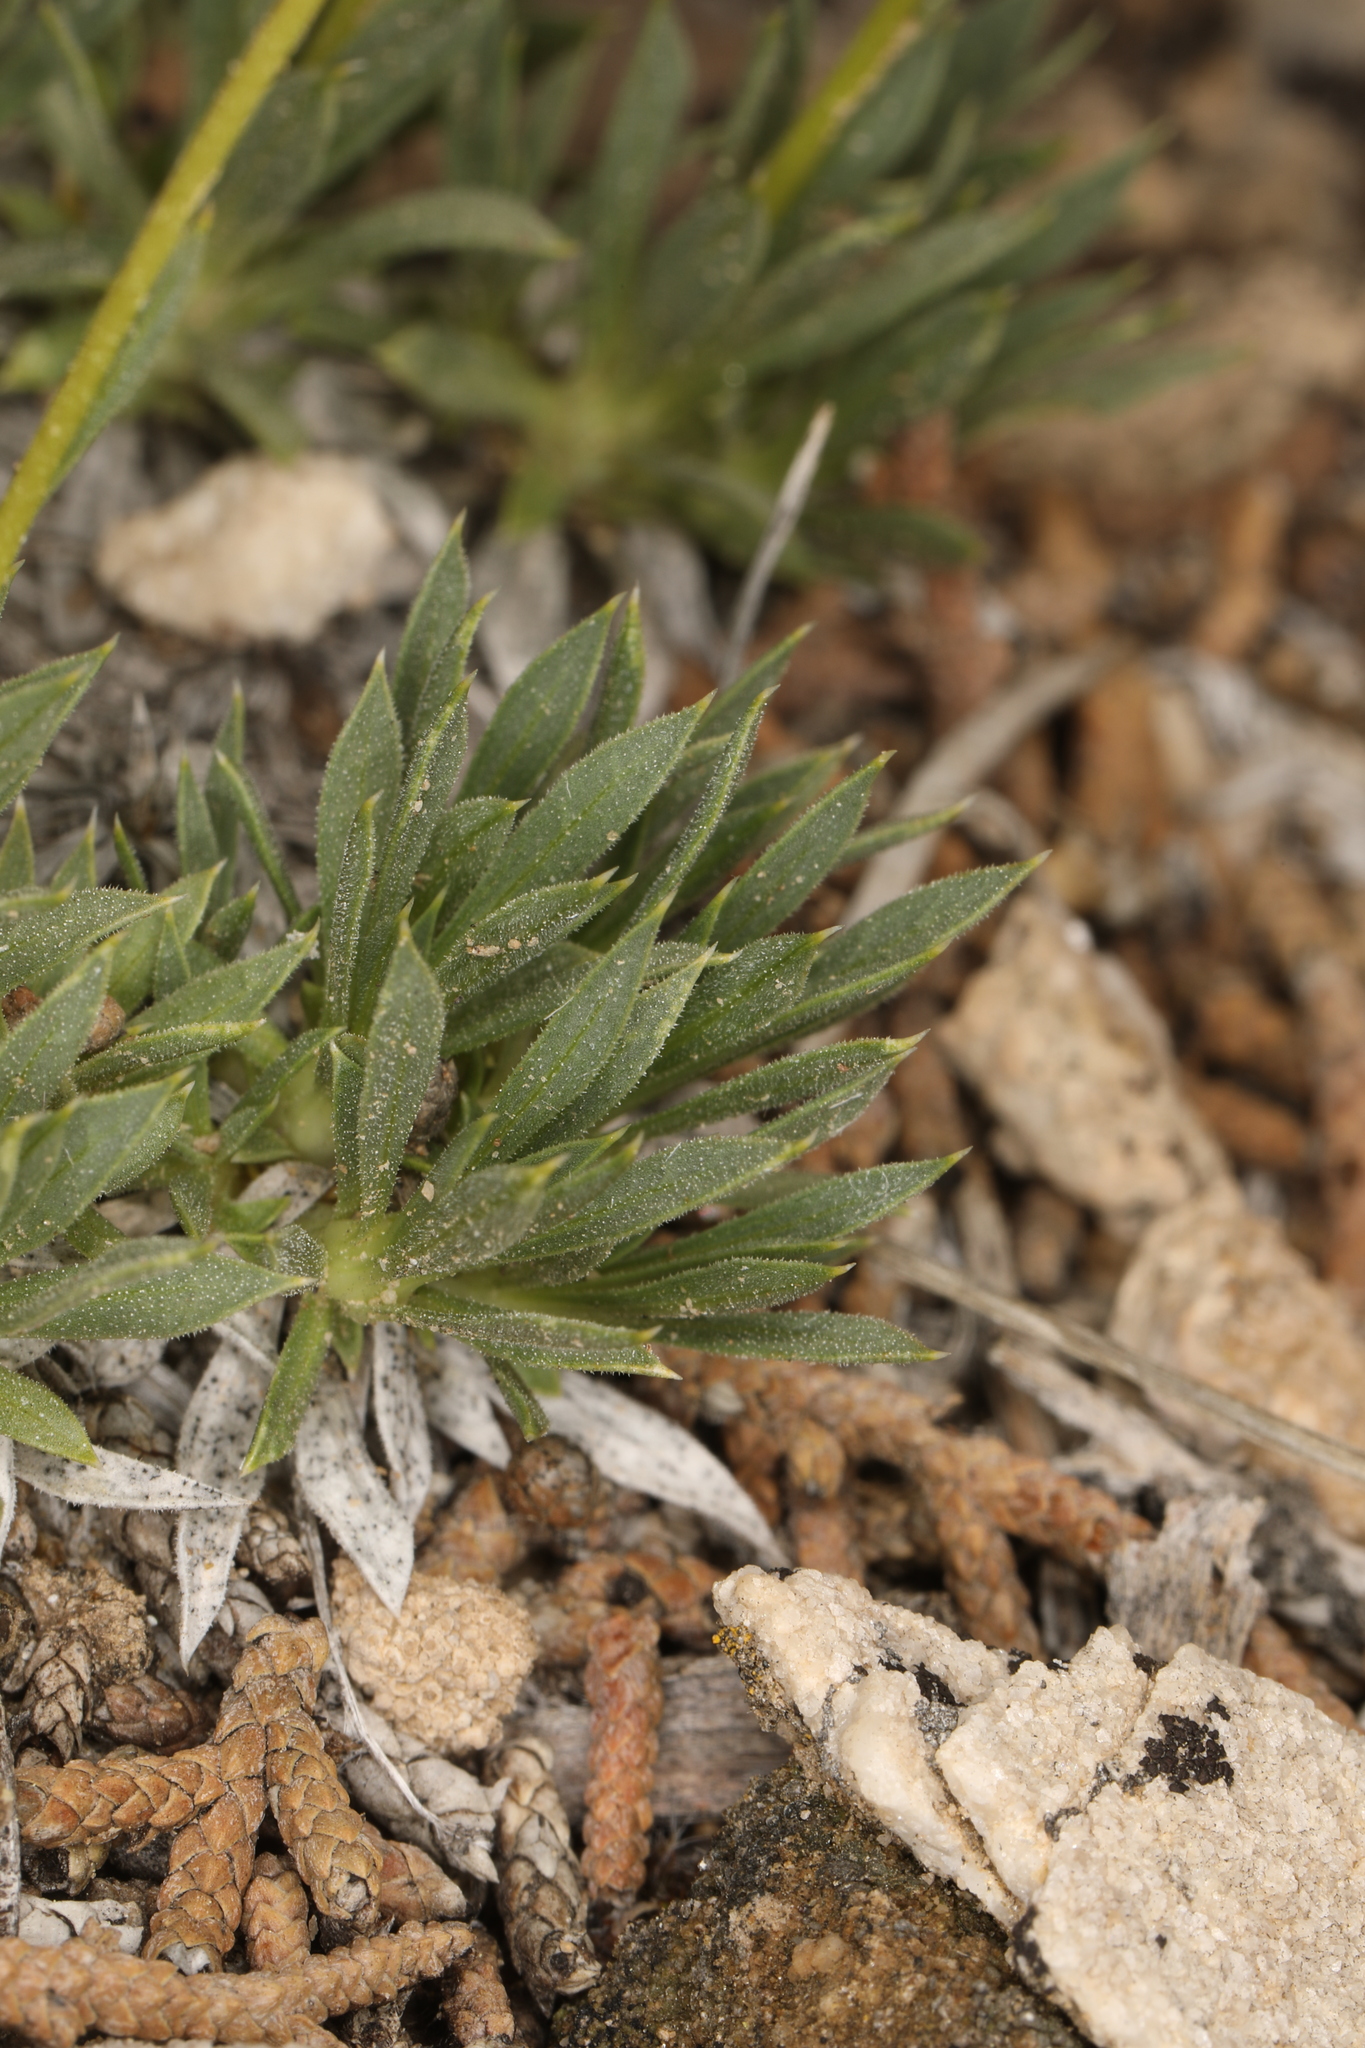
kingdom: Plantae
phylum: Tracheophyta
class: Magnoliopsida
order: Asterales
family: Asteraceae
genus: Stenotus
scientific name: Stenotus acaulis
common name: Stemless goldenweed
